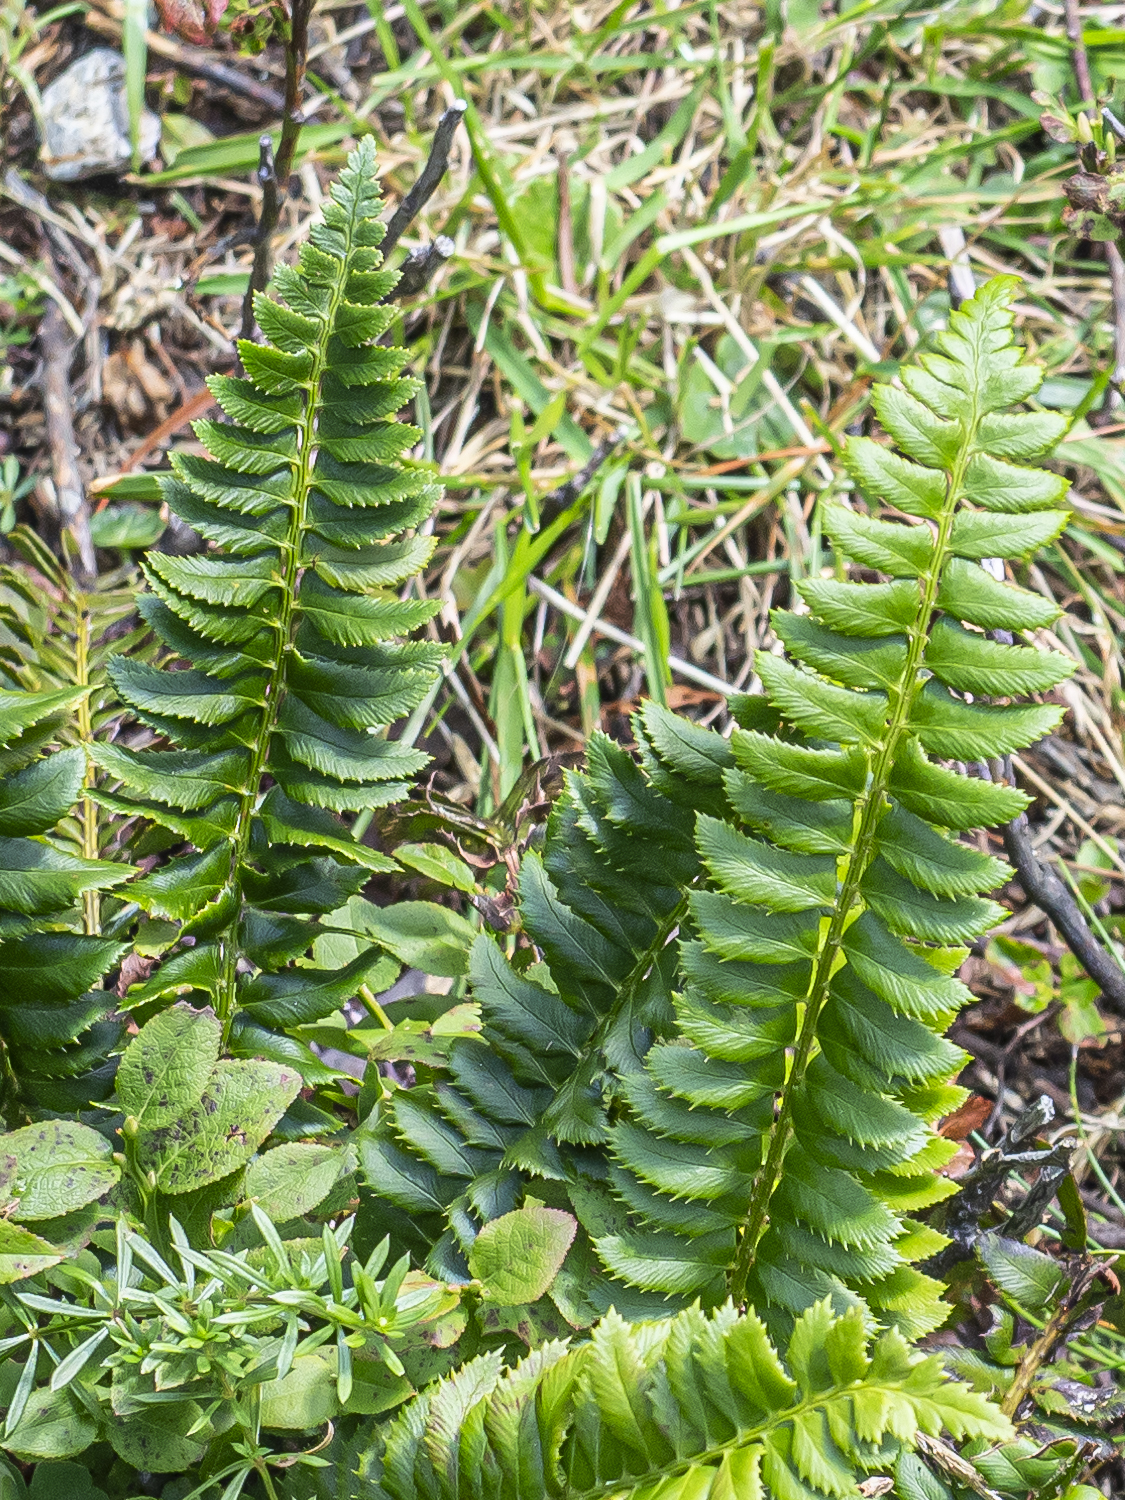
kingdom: Plantae
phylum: Tracheophyta
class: Polypodiopsida
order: Polypodiales
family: Dryopteridaceae
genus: Polystichum
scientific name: Polystichum lonchitis
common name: Holly fern
